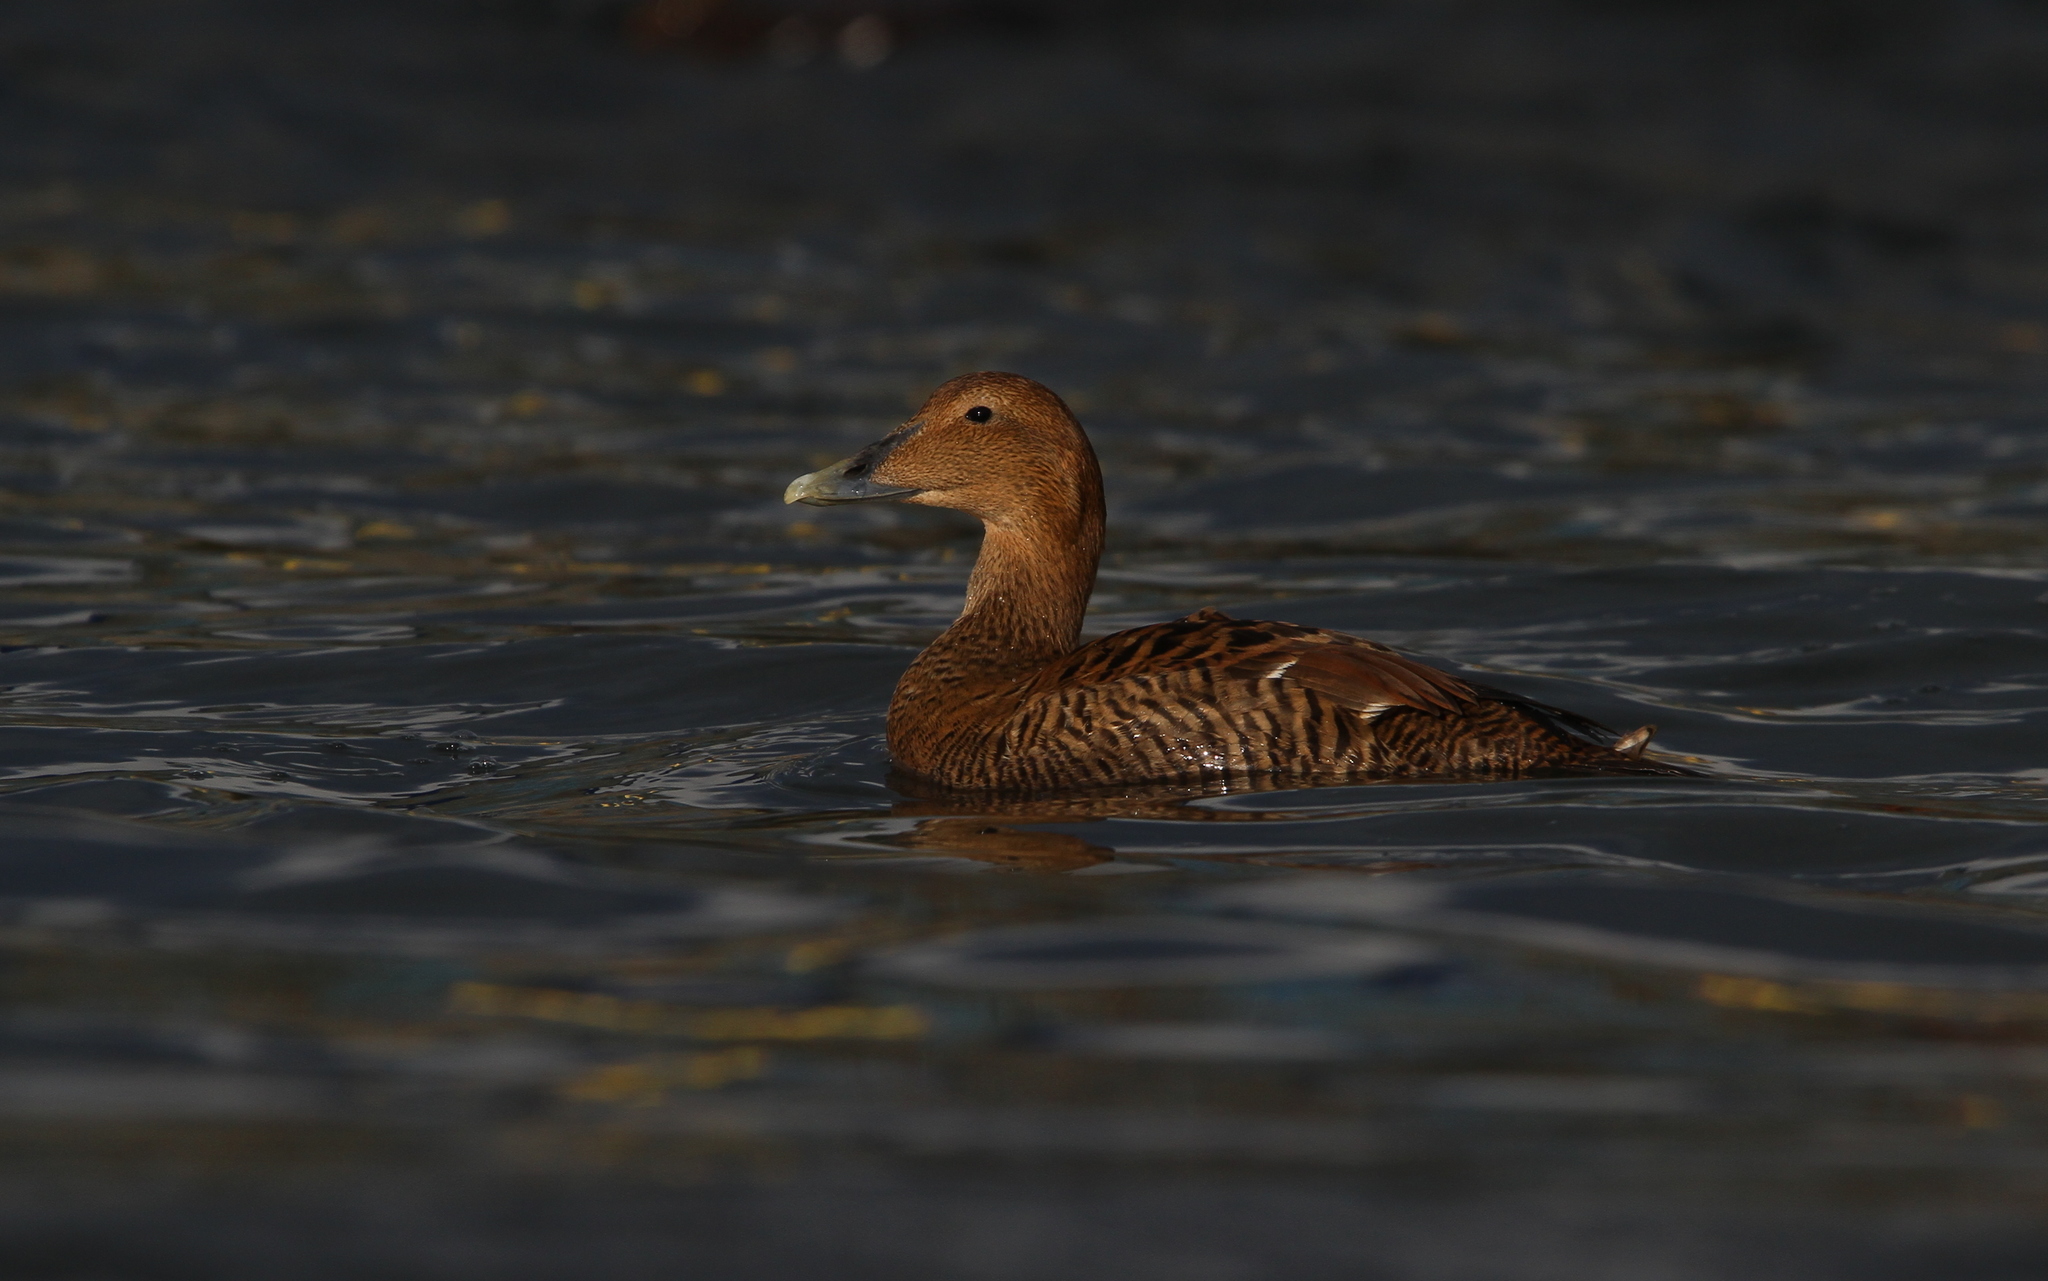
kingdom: Animalia
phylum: Chordata
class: Aves
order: Anseriformes
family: Anatidae
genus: Somateria
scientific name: Somateria mollissima
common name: Common eider
